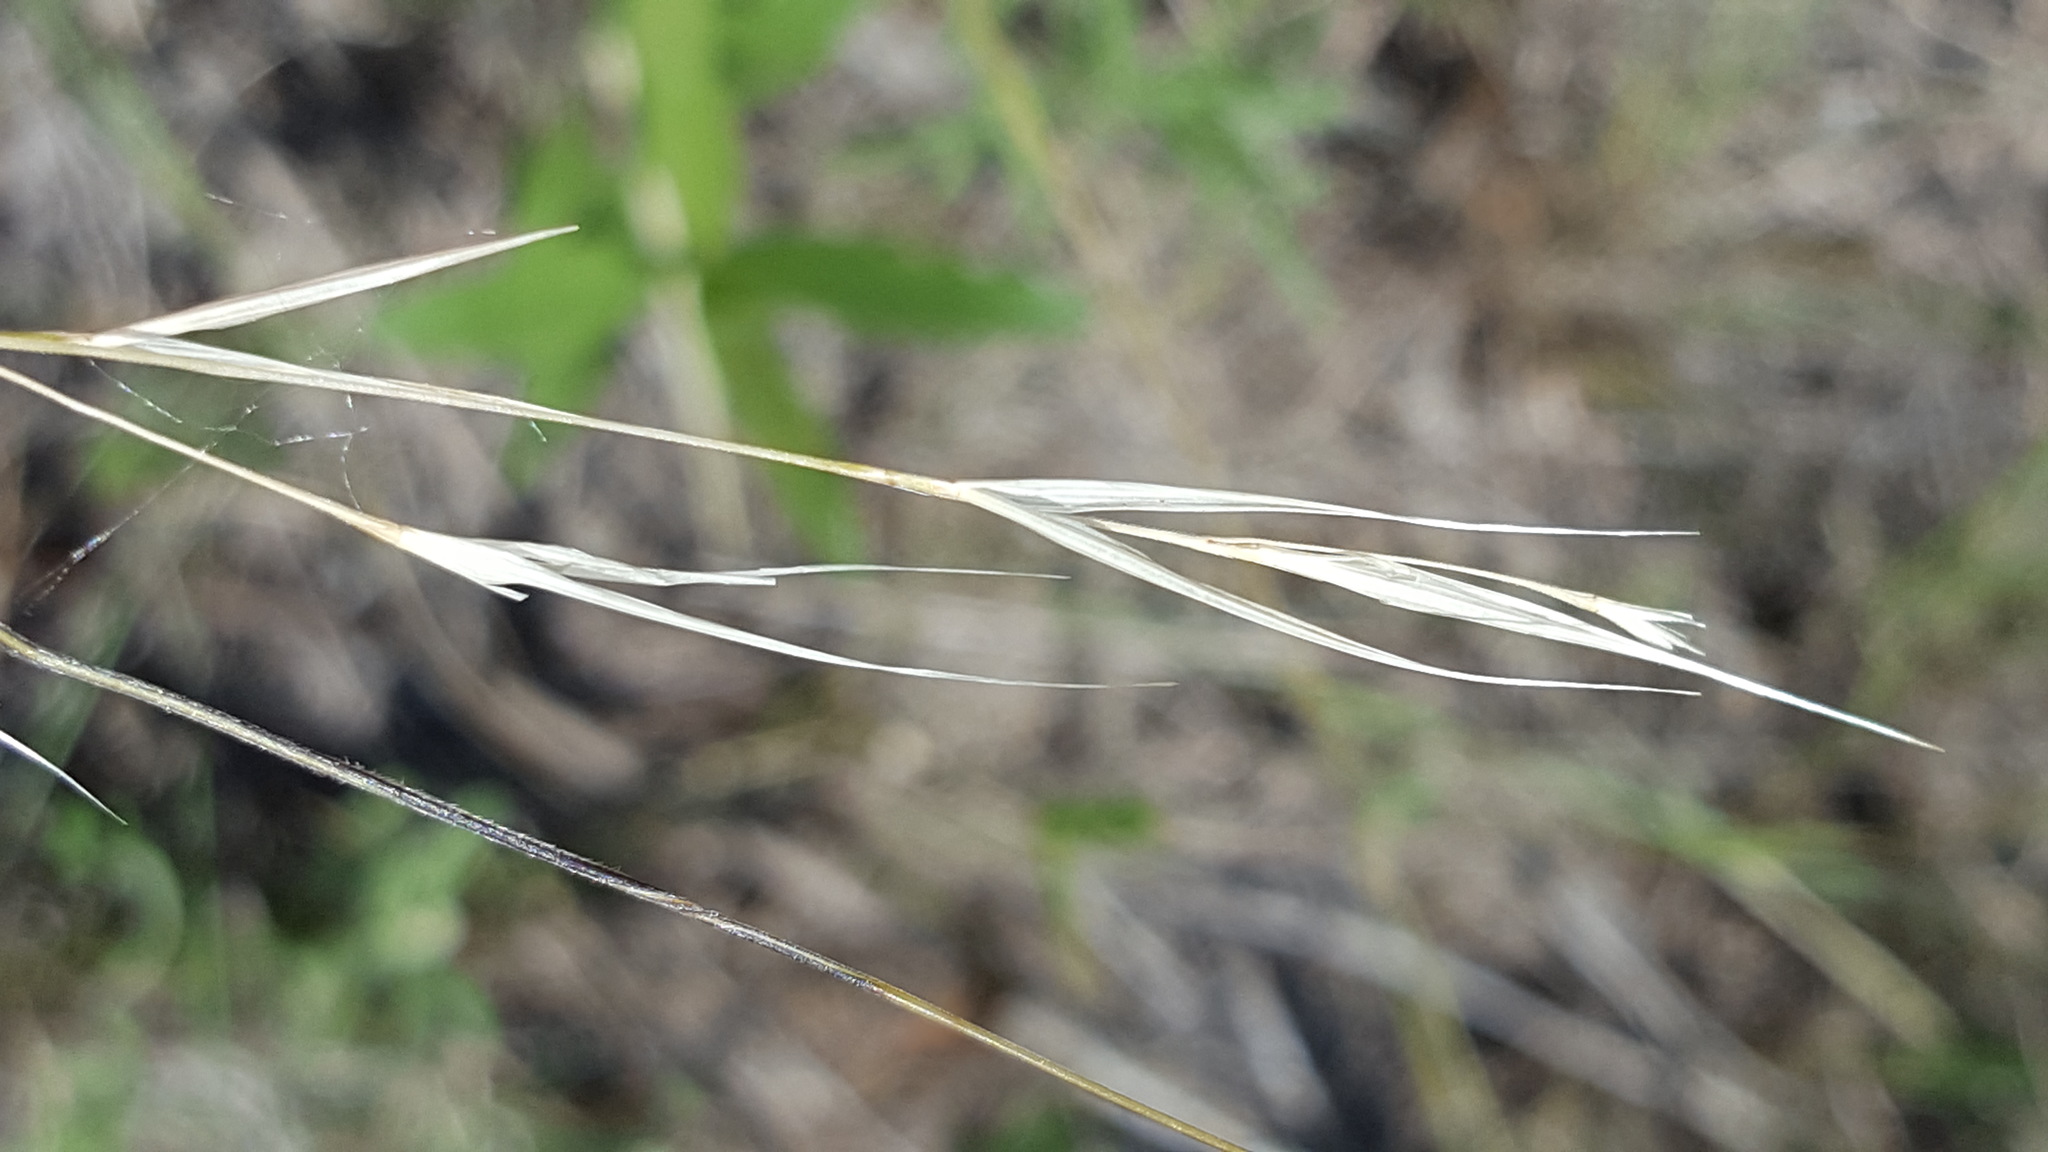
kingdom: Plantae
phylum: Tracheophyta
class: Liliopsida
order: Poales
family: Poaceae
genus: Hesperostipa
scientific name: Hesperostipa comata
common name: Needle-and-thread grass
